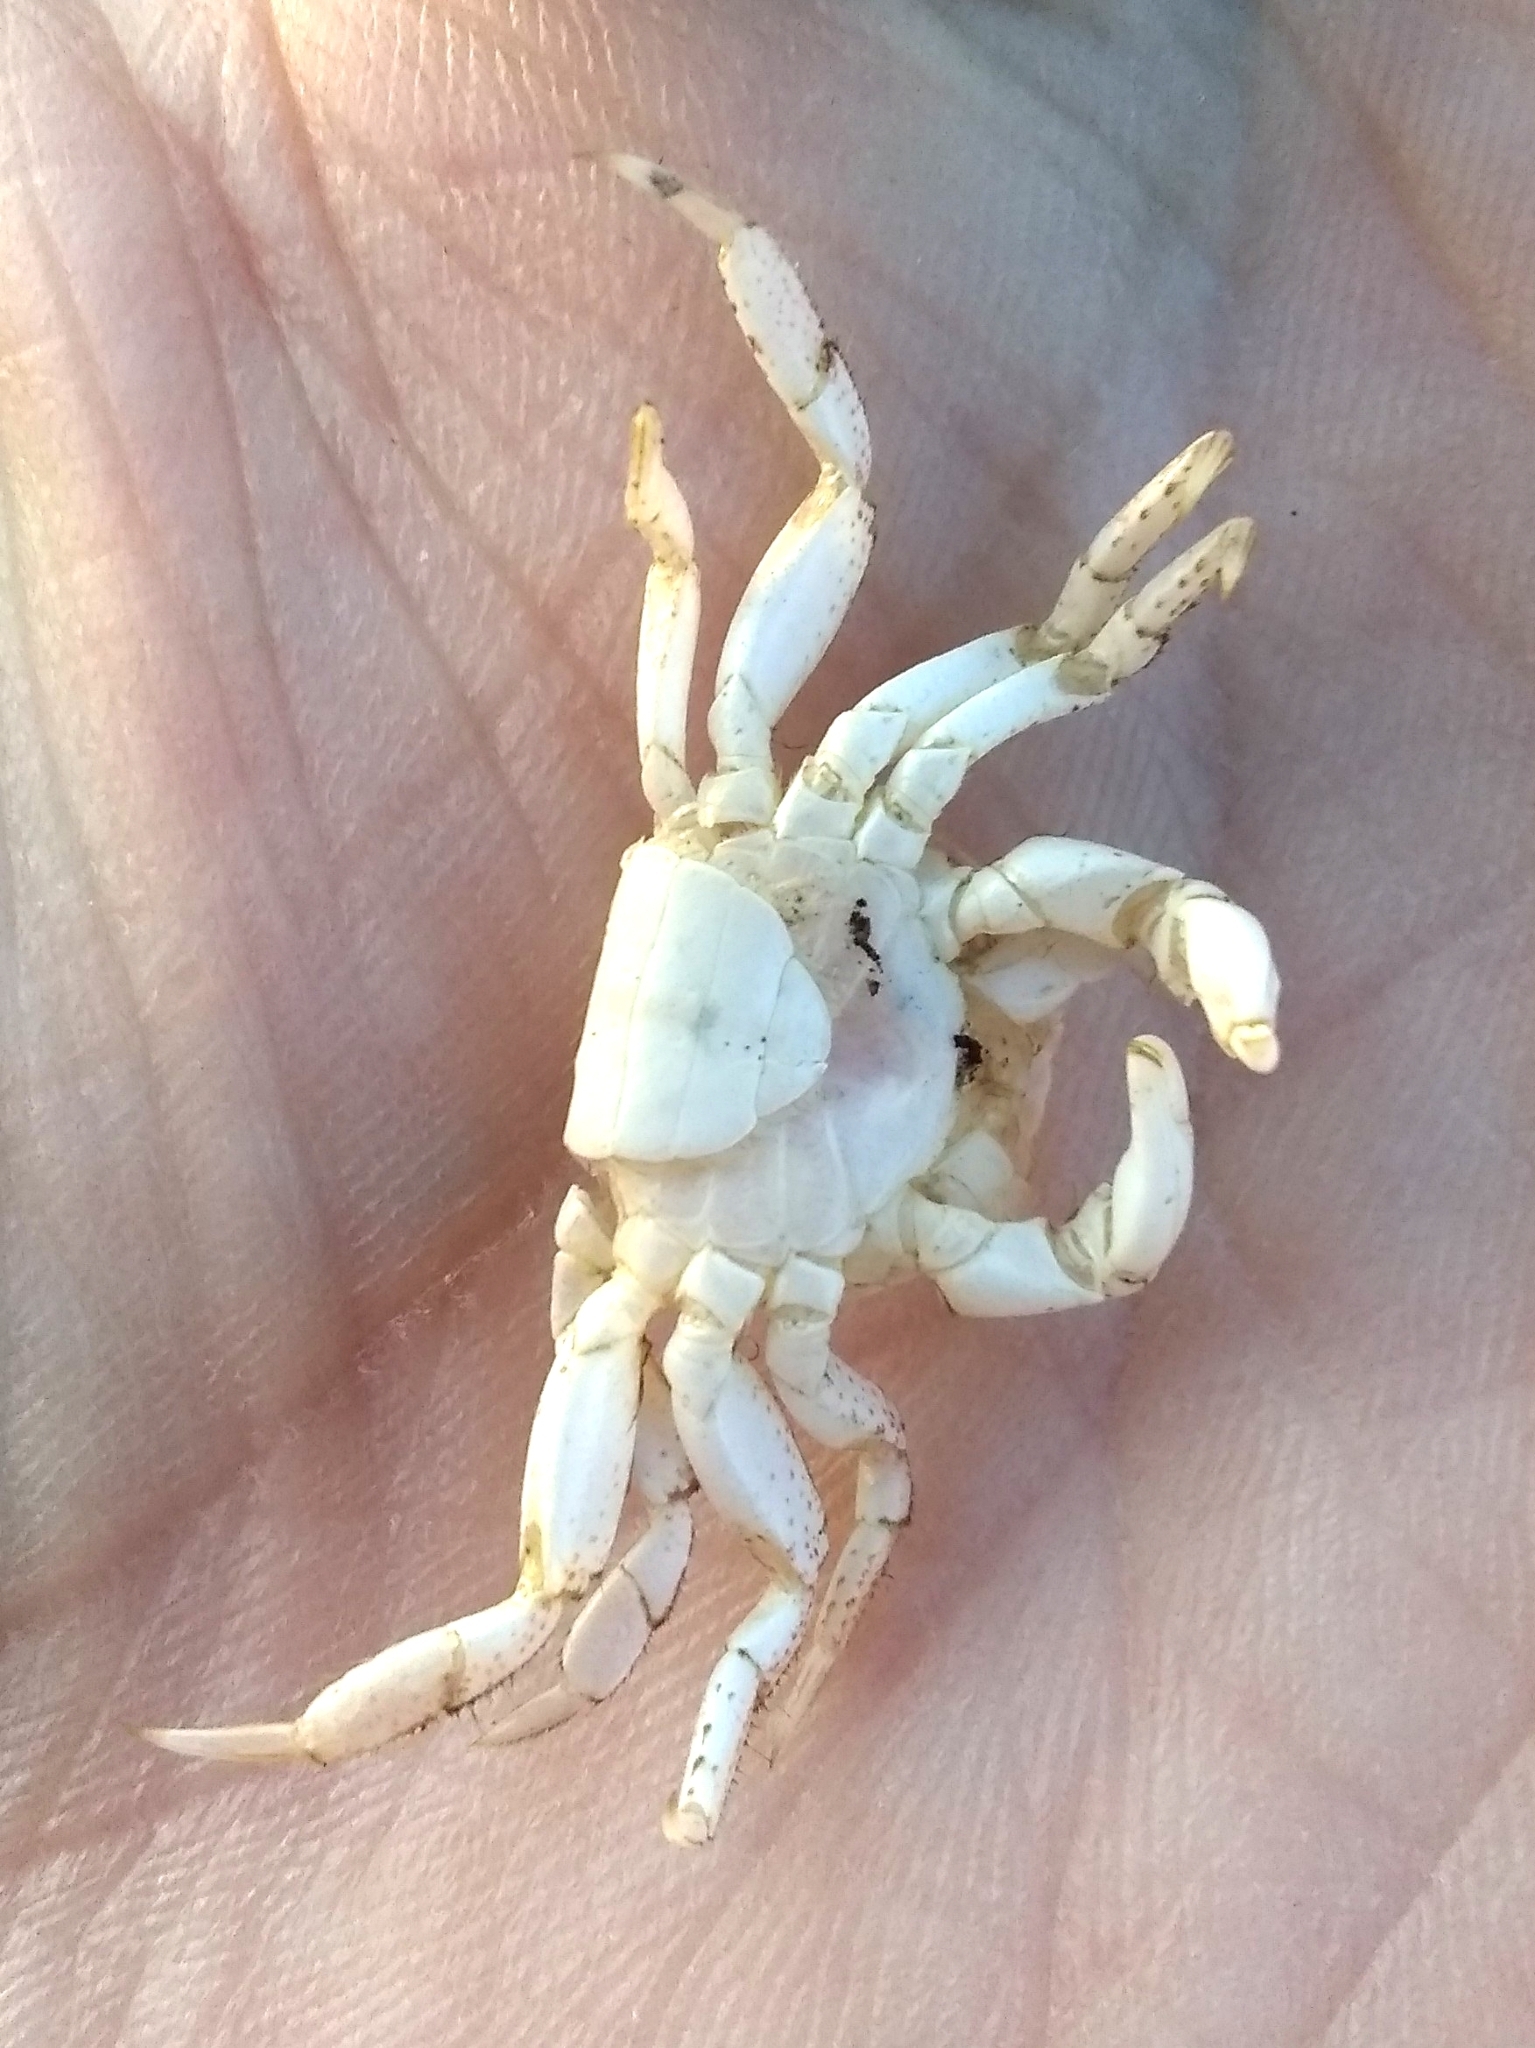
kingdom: Animalia
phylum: Arthropoda
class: Malacostraca
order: Decapoda
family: Varunidae
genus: Hemigrapsus
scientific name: Hemigrapsus oregonensis
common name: Yellow shore crab
